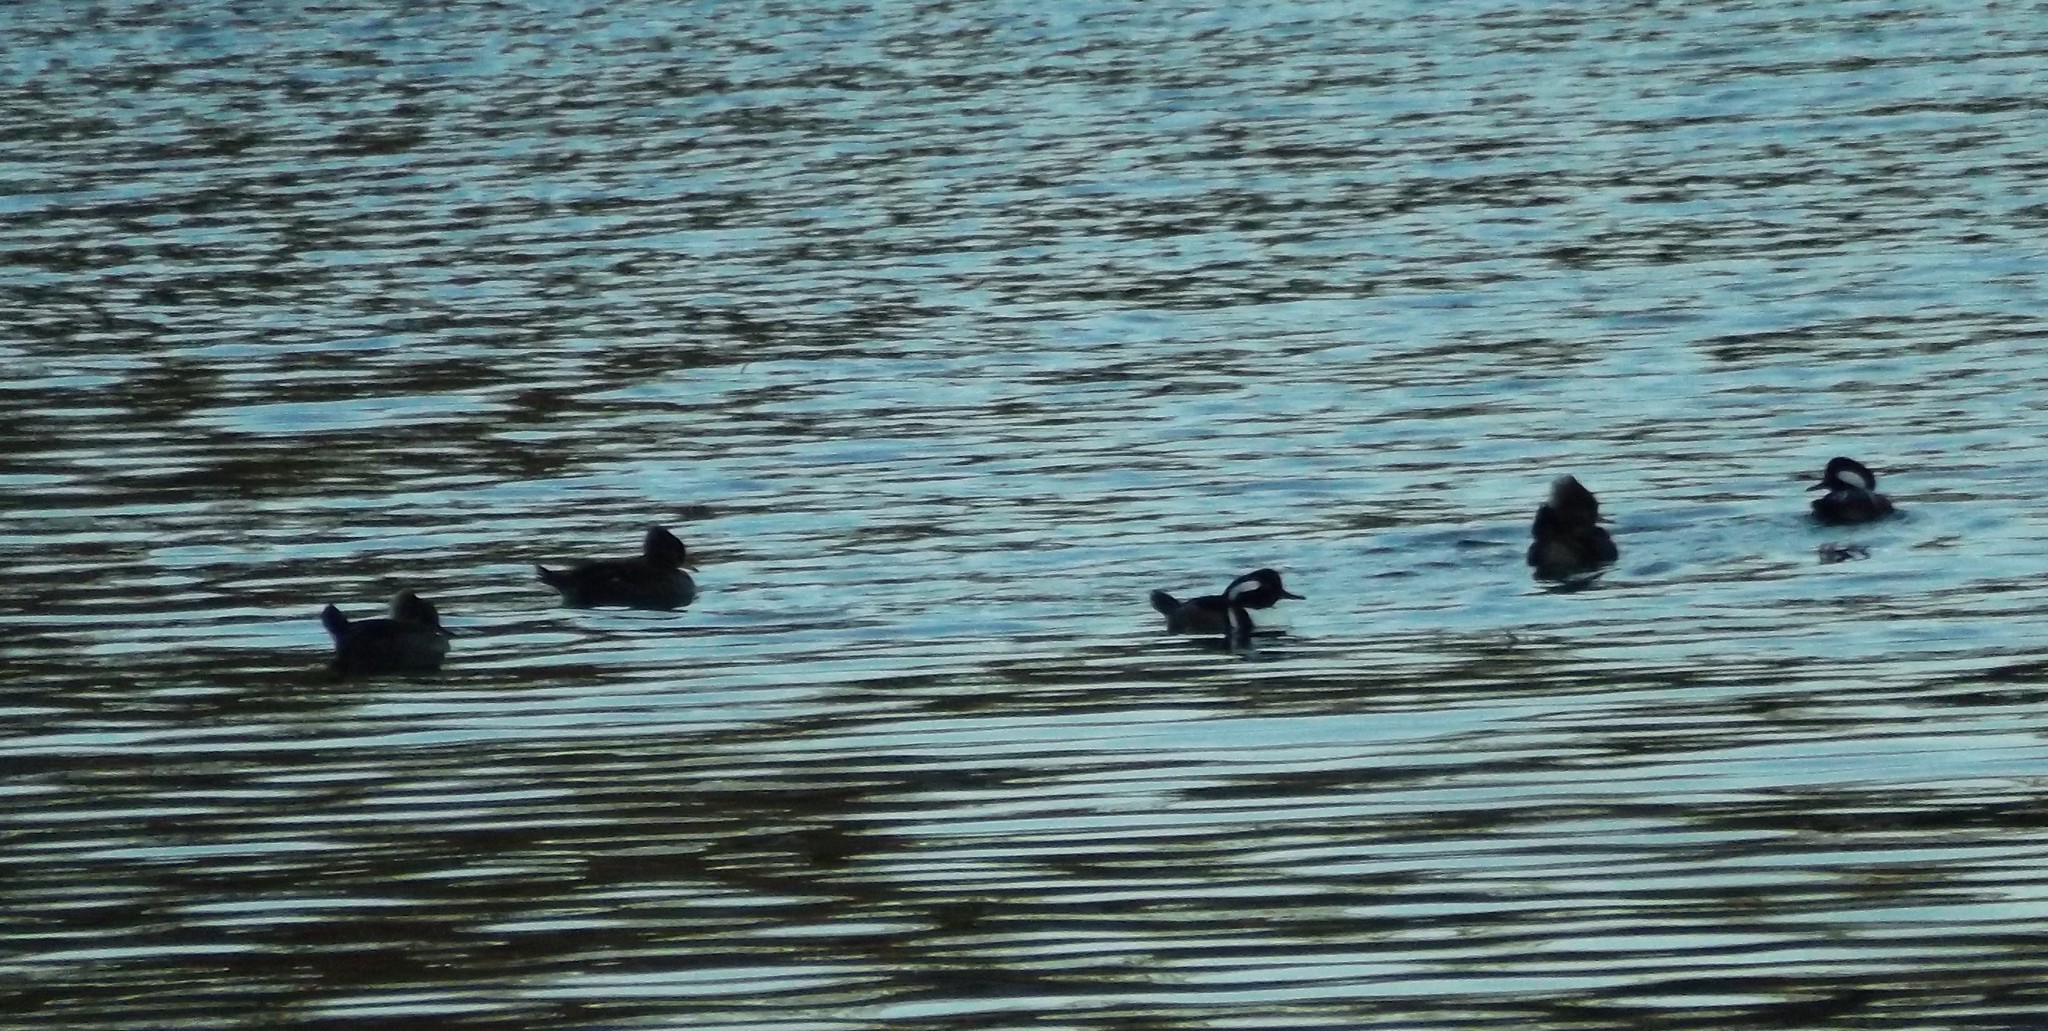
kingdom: Animalia
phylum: Chordata
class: Aves
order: Anseriformes
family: Anatidae
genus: Lophodytes
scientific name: Lophodytes cucullatus
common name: Hooded merganser
